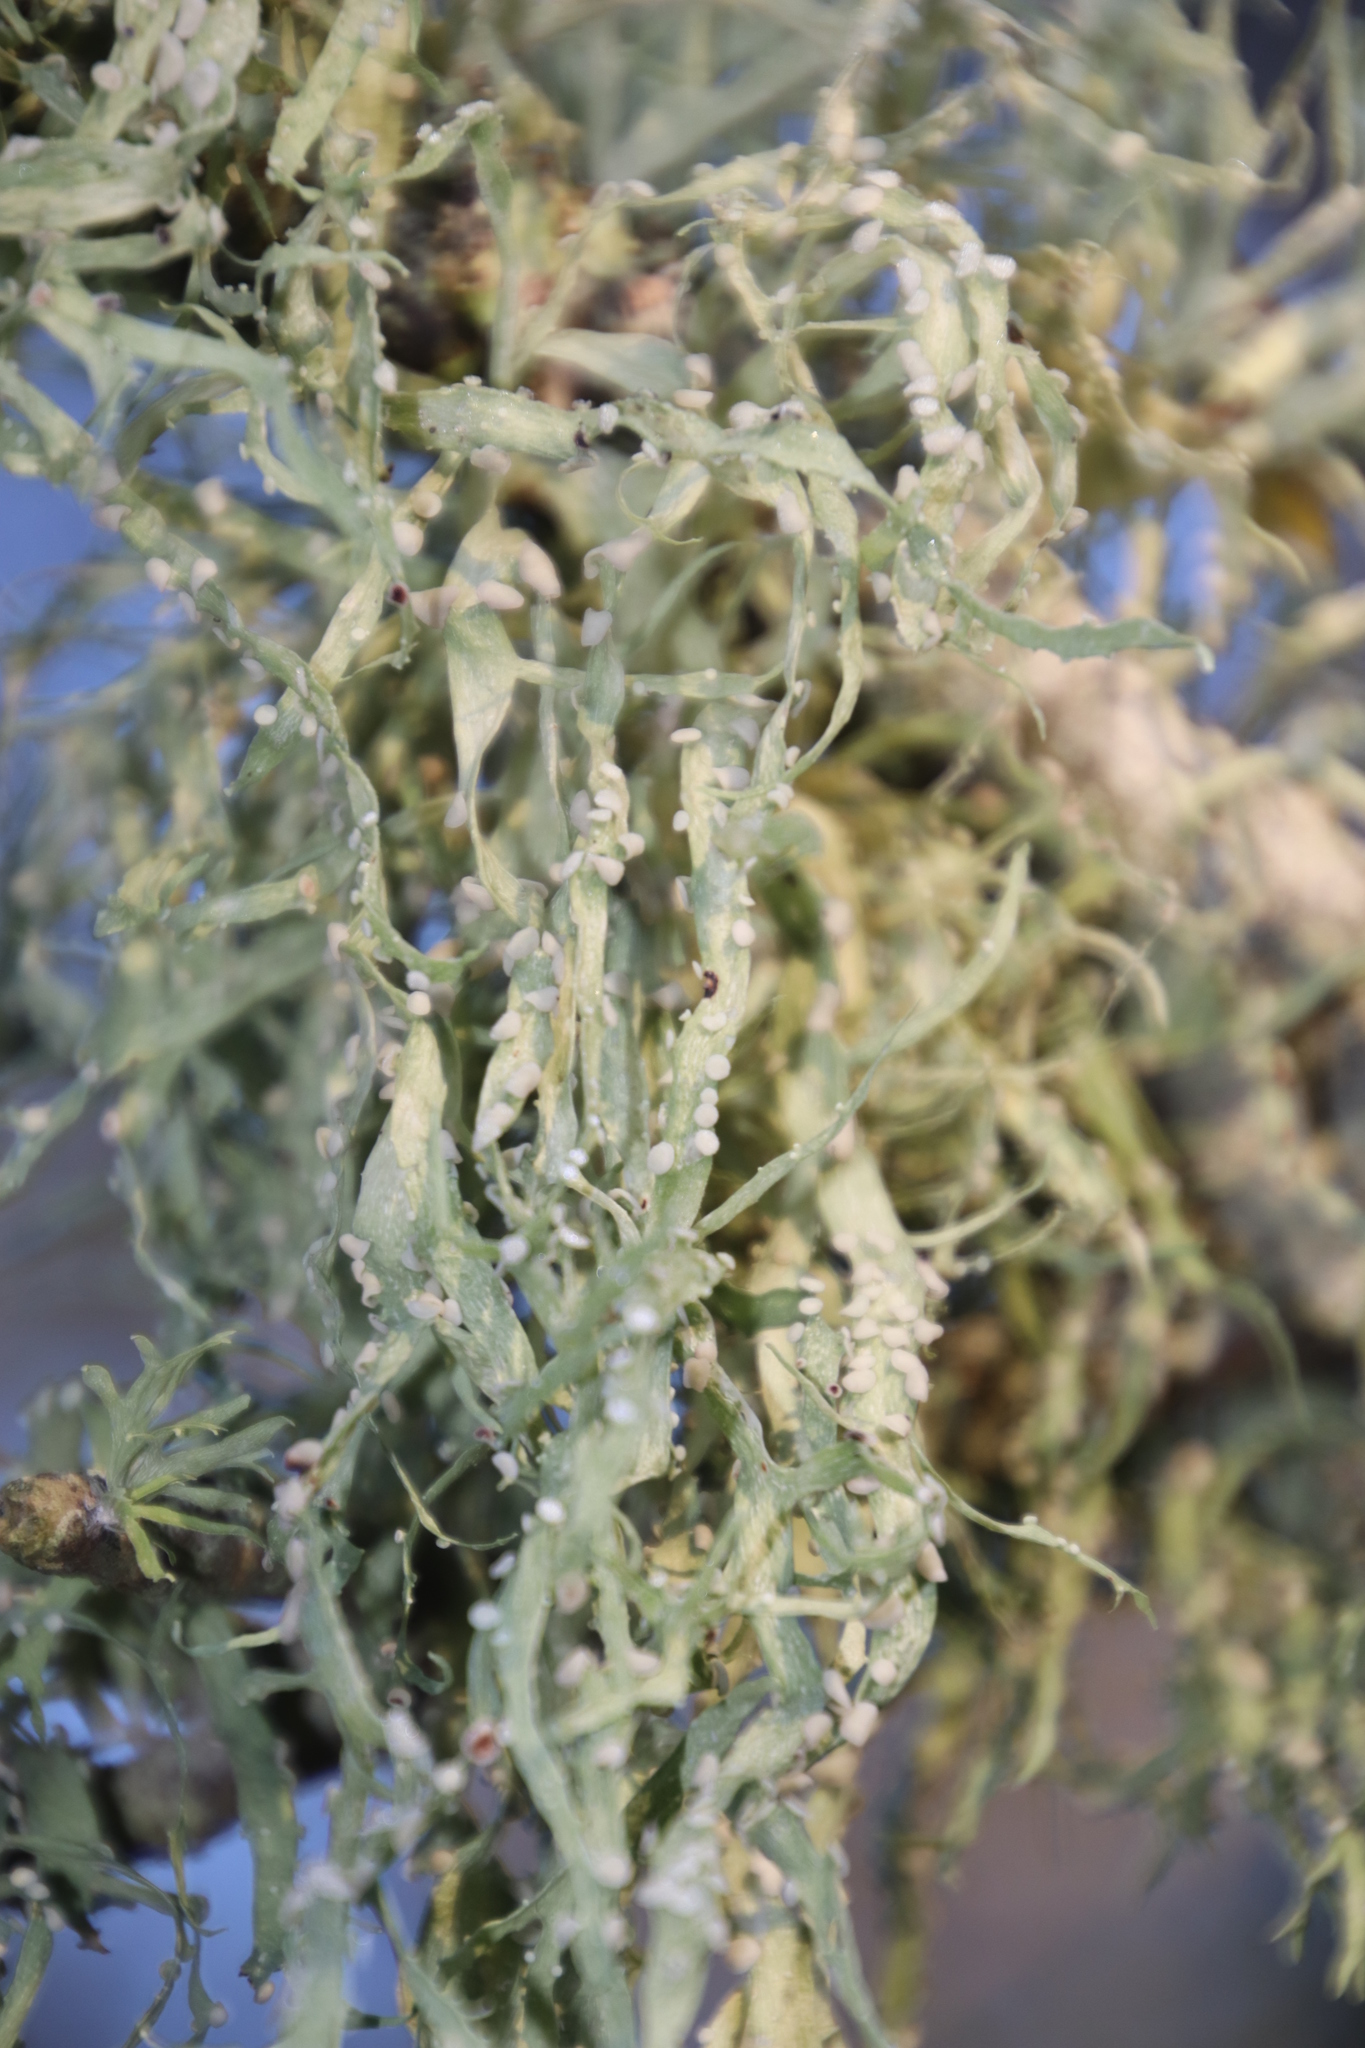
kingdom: Fungi
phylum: Ascomycota
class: Lecanoromycetes
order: Lecanorales
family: Ramalinaceae
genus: Ramalina
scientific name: Ramalina celastri
